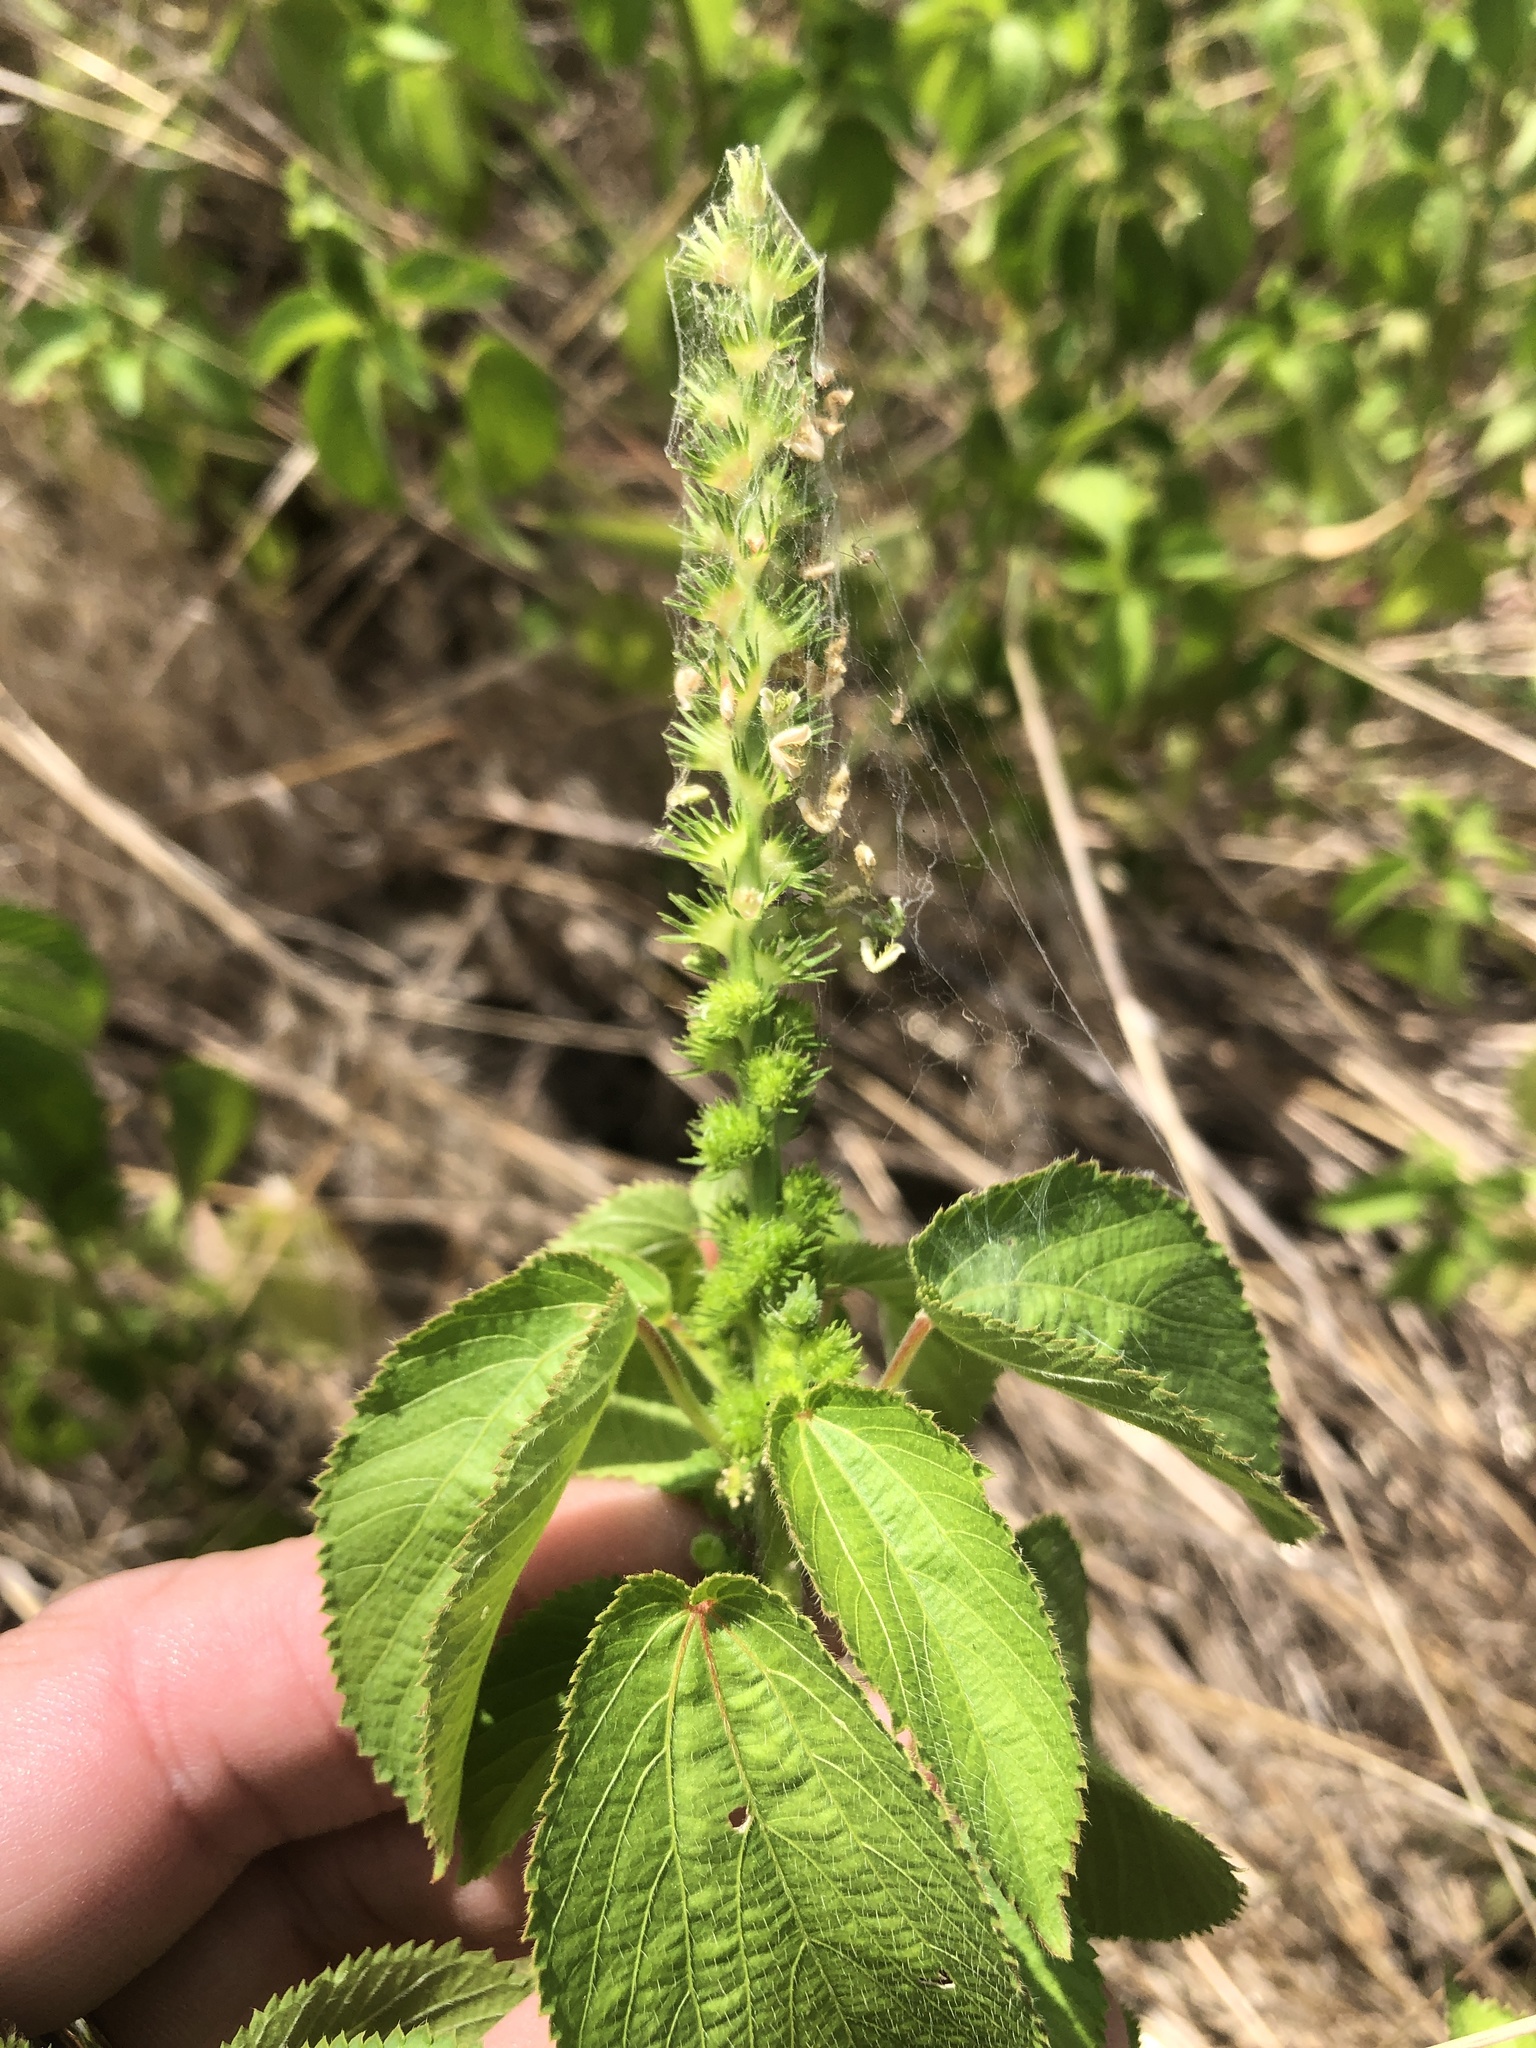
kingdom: Plantae
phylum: Tracheophyta
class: Magnoliopsida
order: Malpighiales
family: Euphorbiaceae
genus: Acalypha
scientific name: Acalypha ostryifolia
